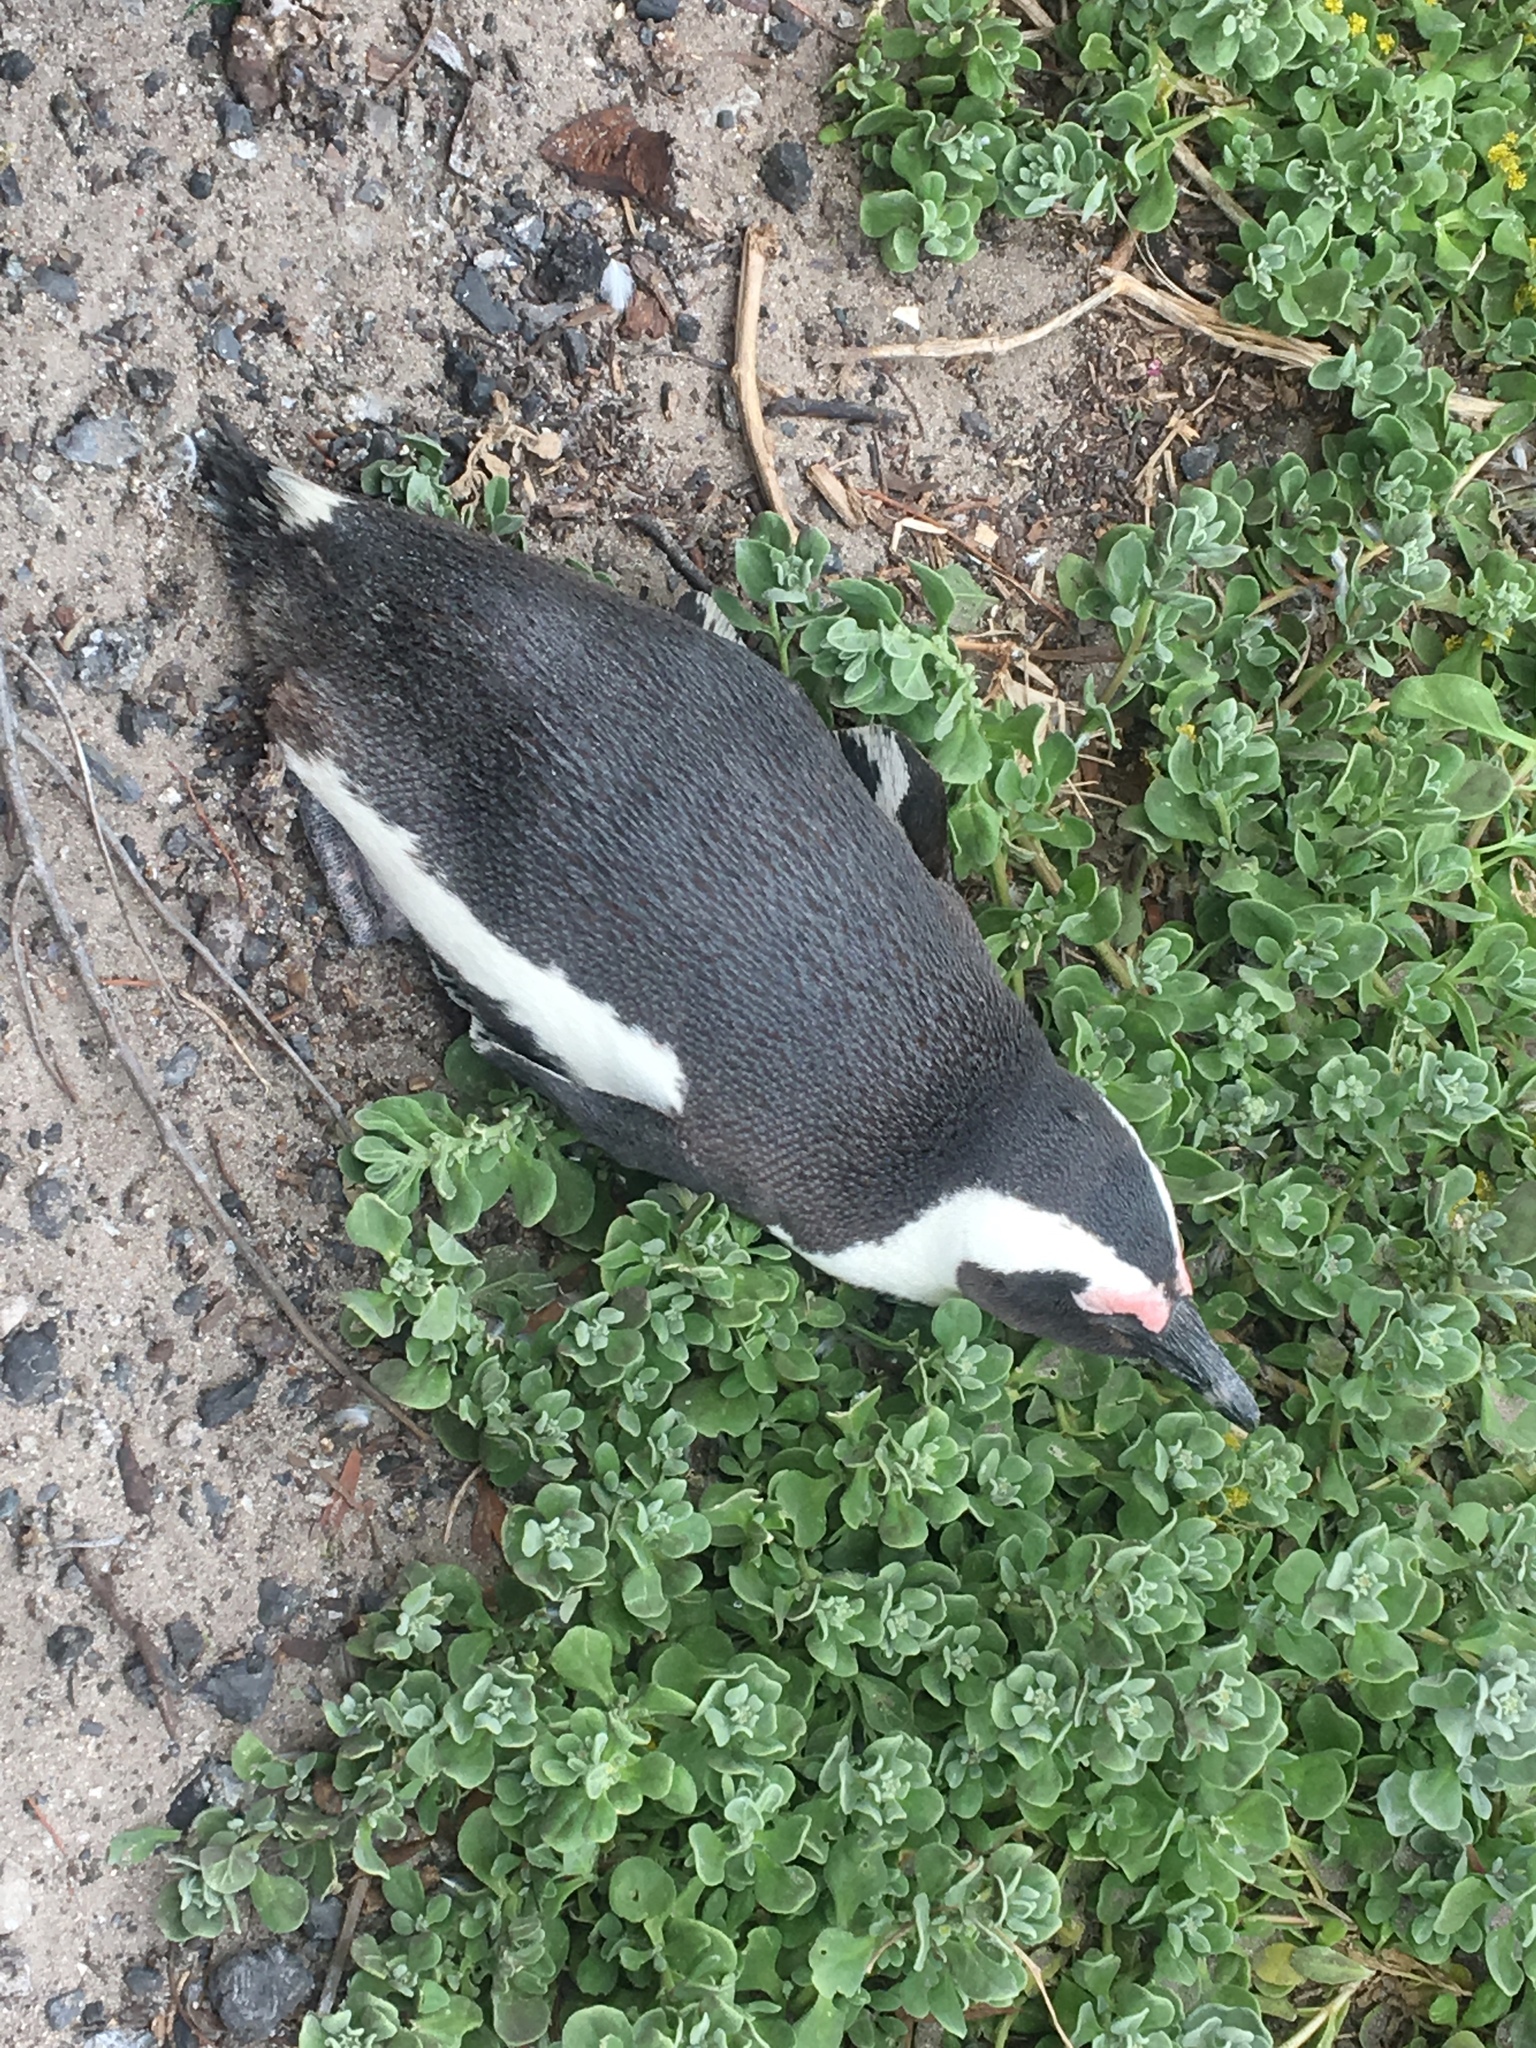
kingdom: Animalia
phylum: Chordata
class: Aves
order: Sphenisciformes
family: Spheniscidae
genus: Spheniscus
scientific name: Spheniscus demersus
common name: African penguin
